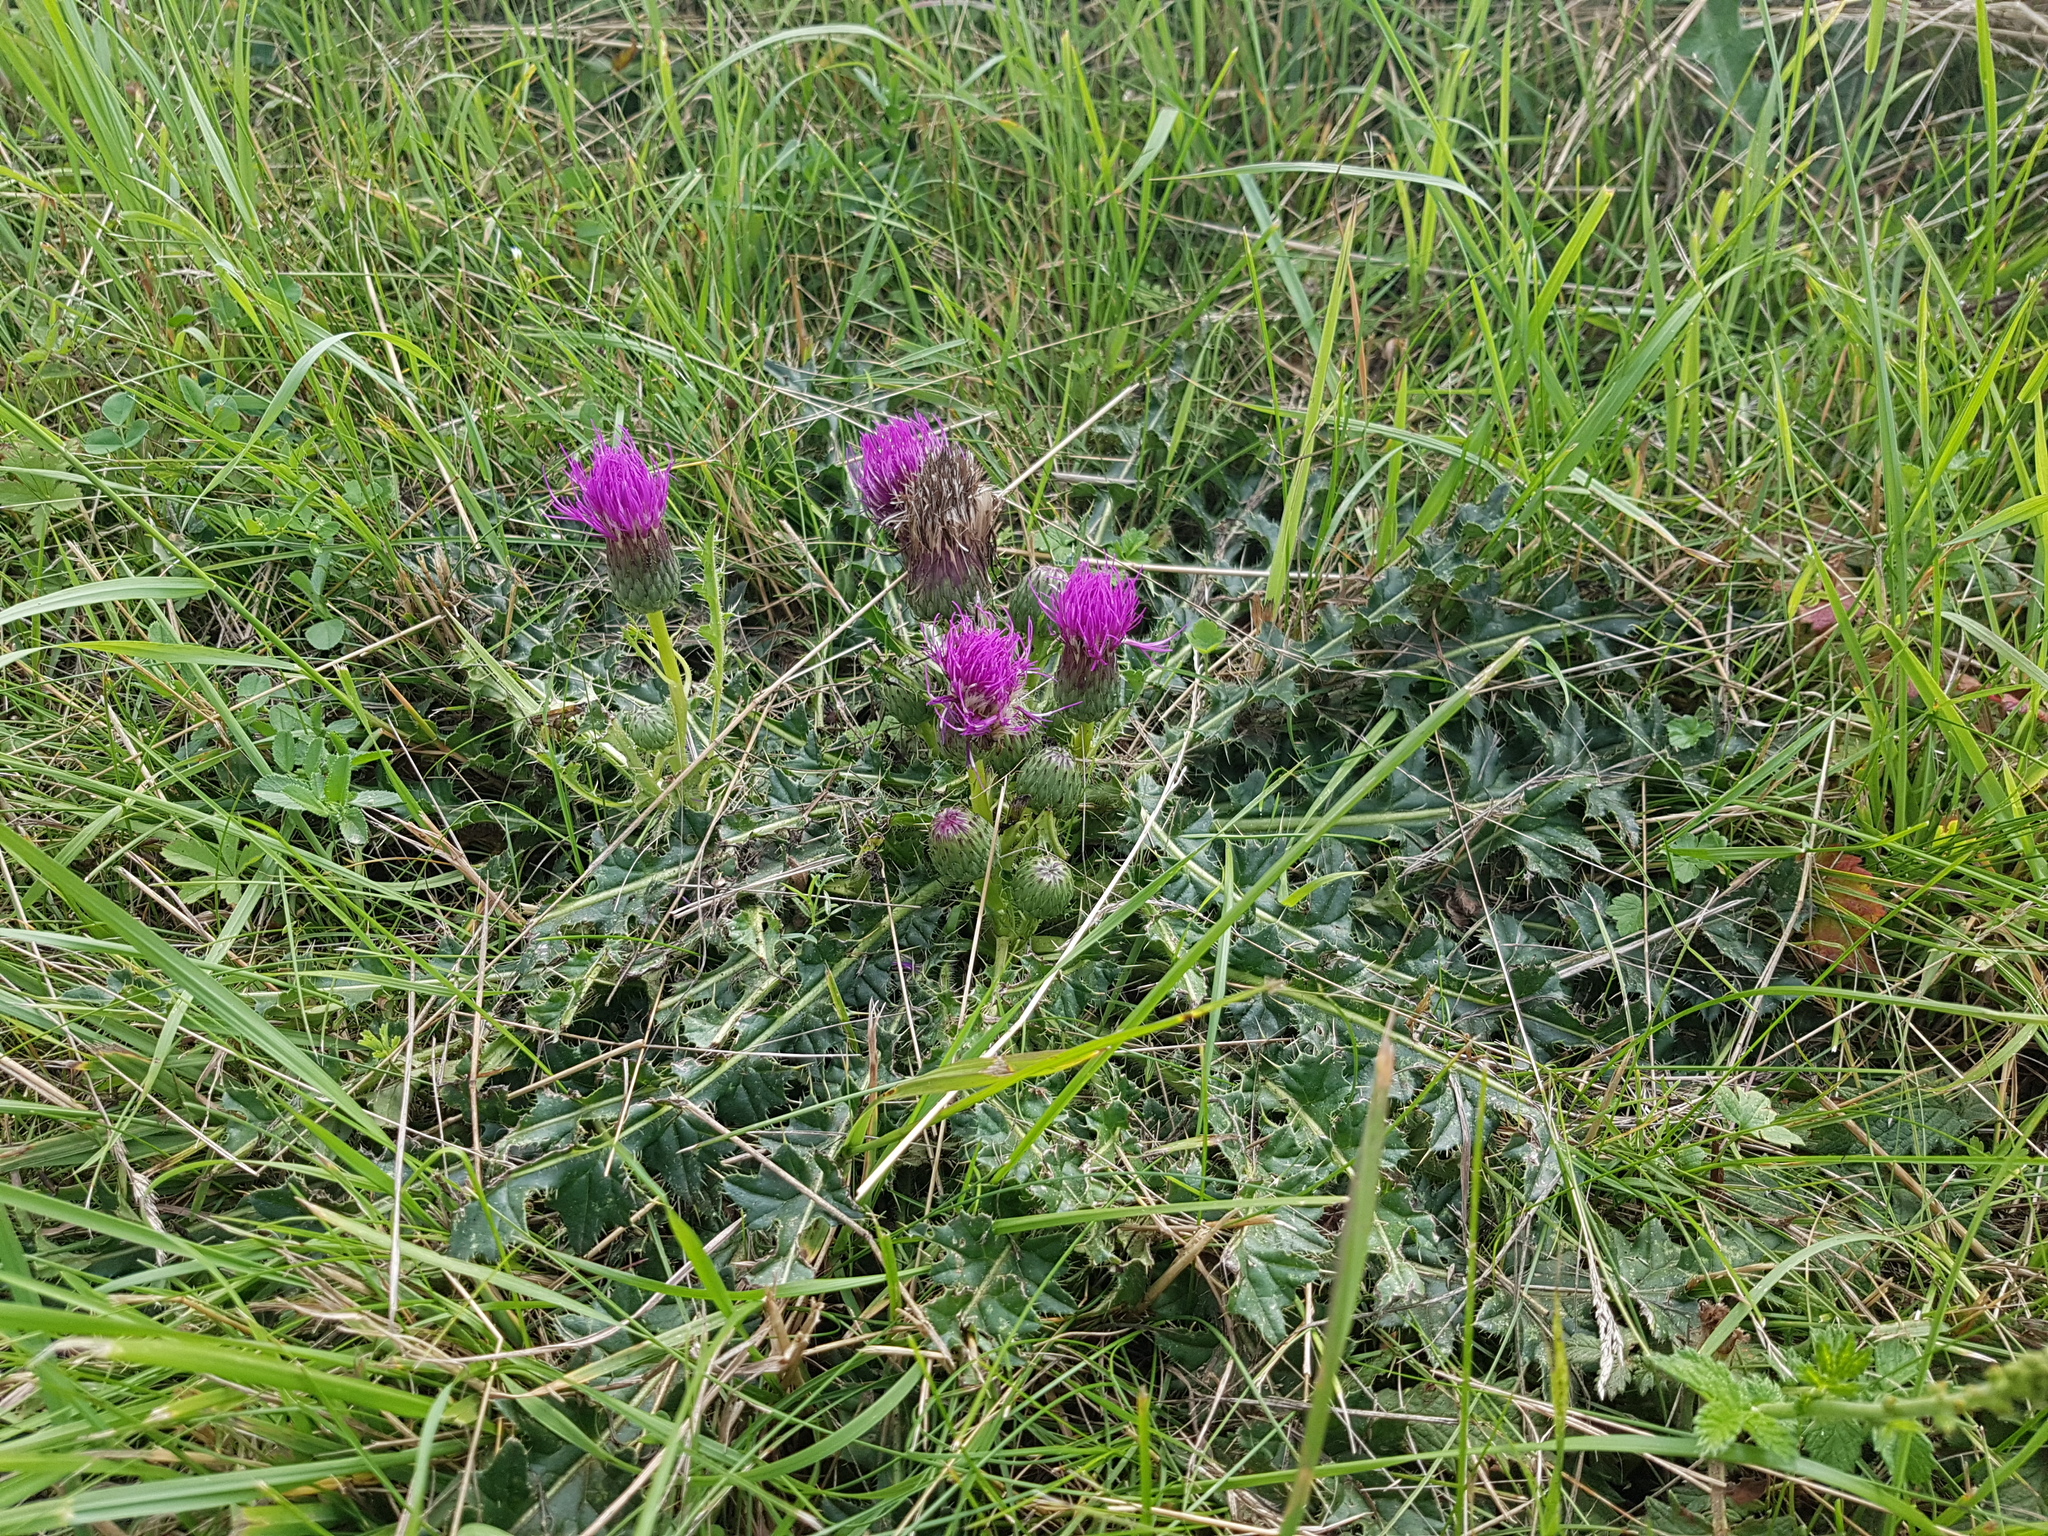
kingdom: Plantae
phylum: Tracheophyta
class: Magnoliopsida
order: Asterales
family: Asteraceae
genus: Cirsium
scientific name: Cirsium acaulon
